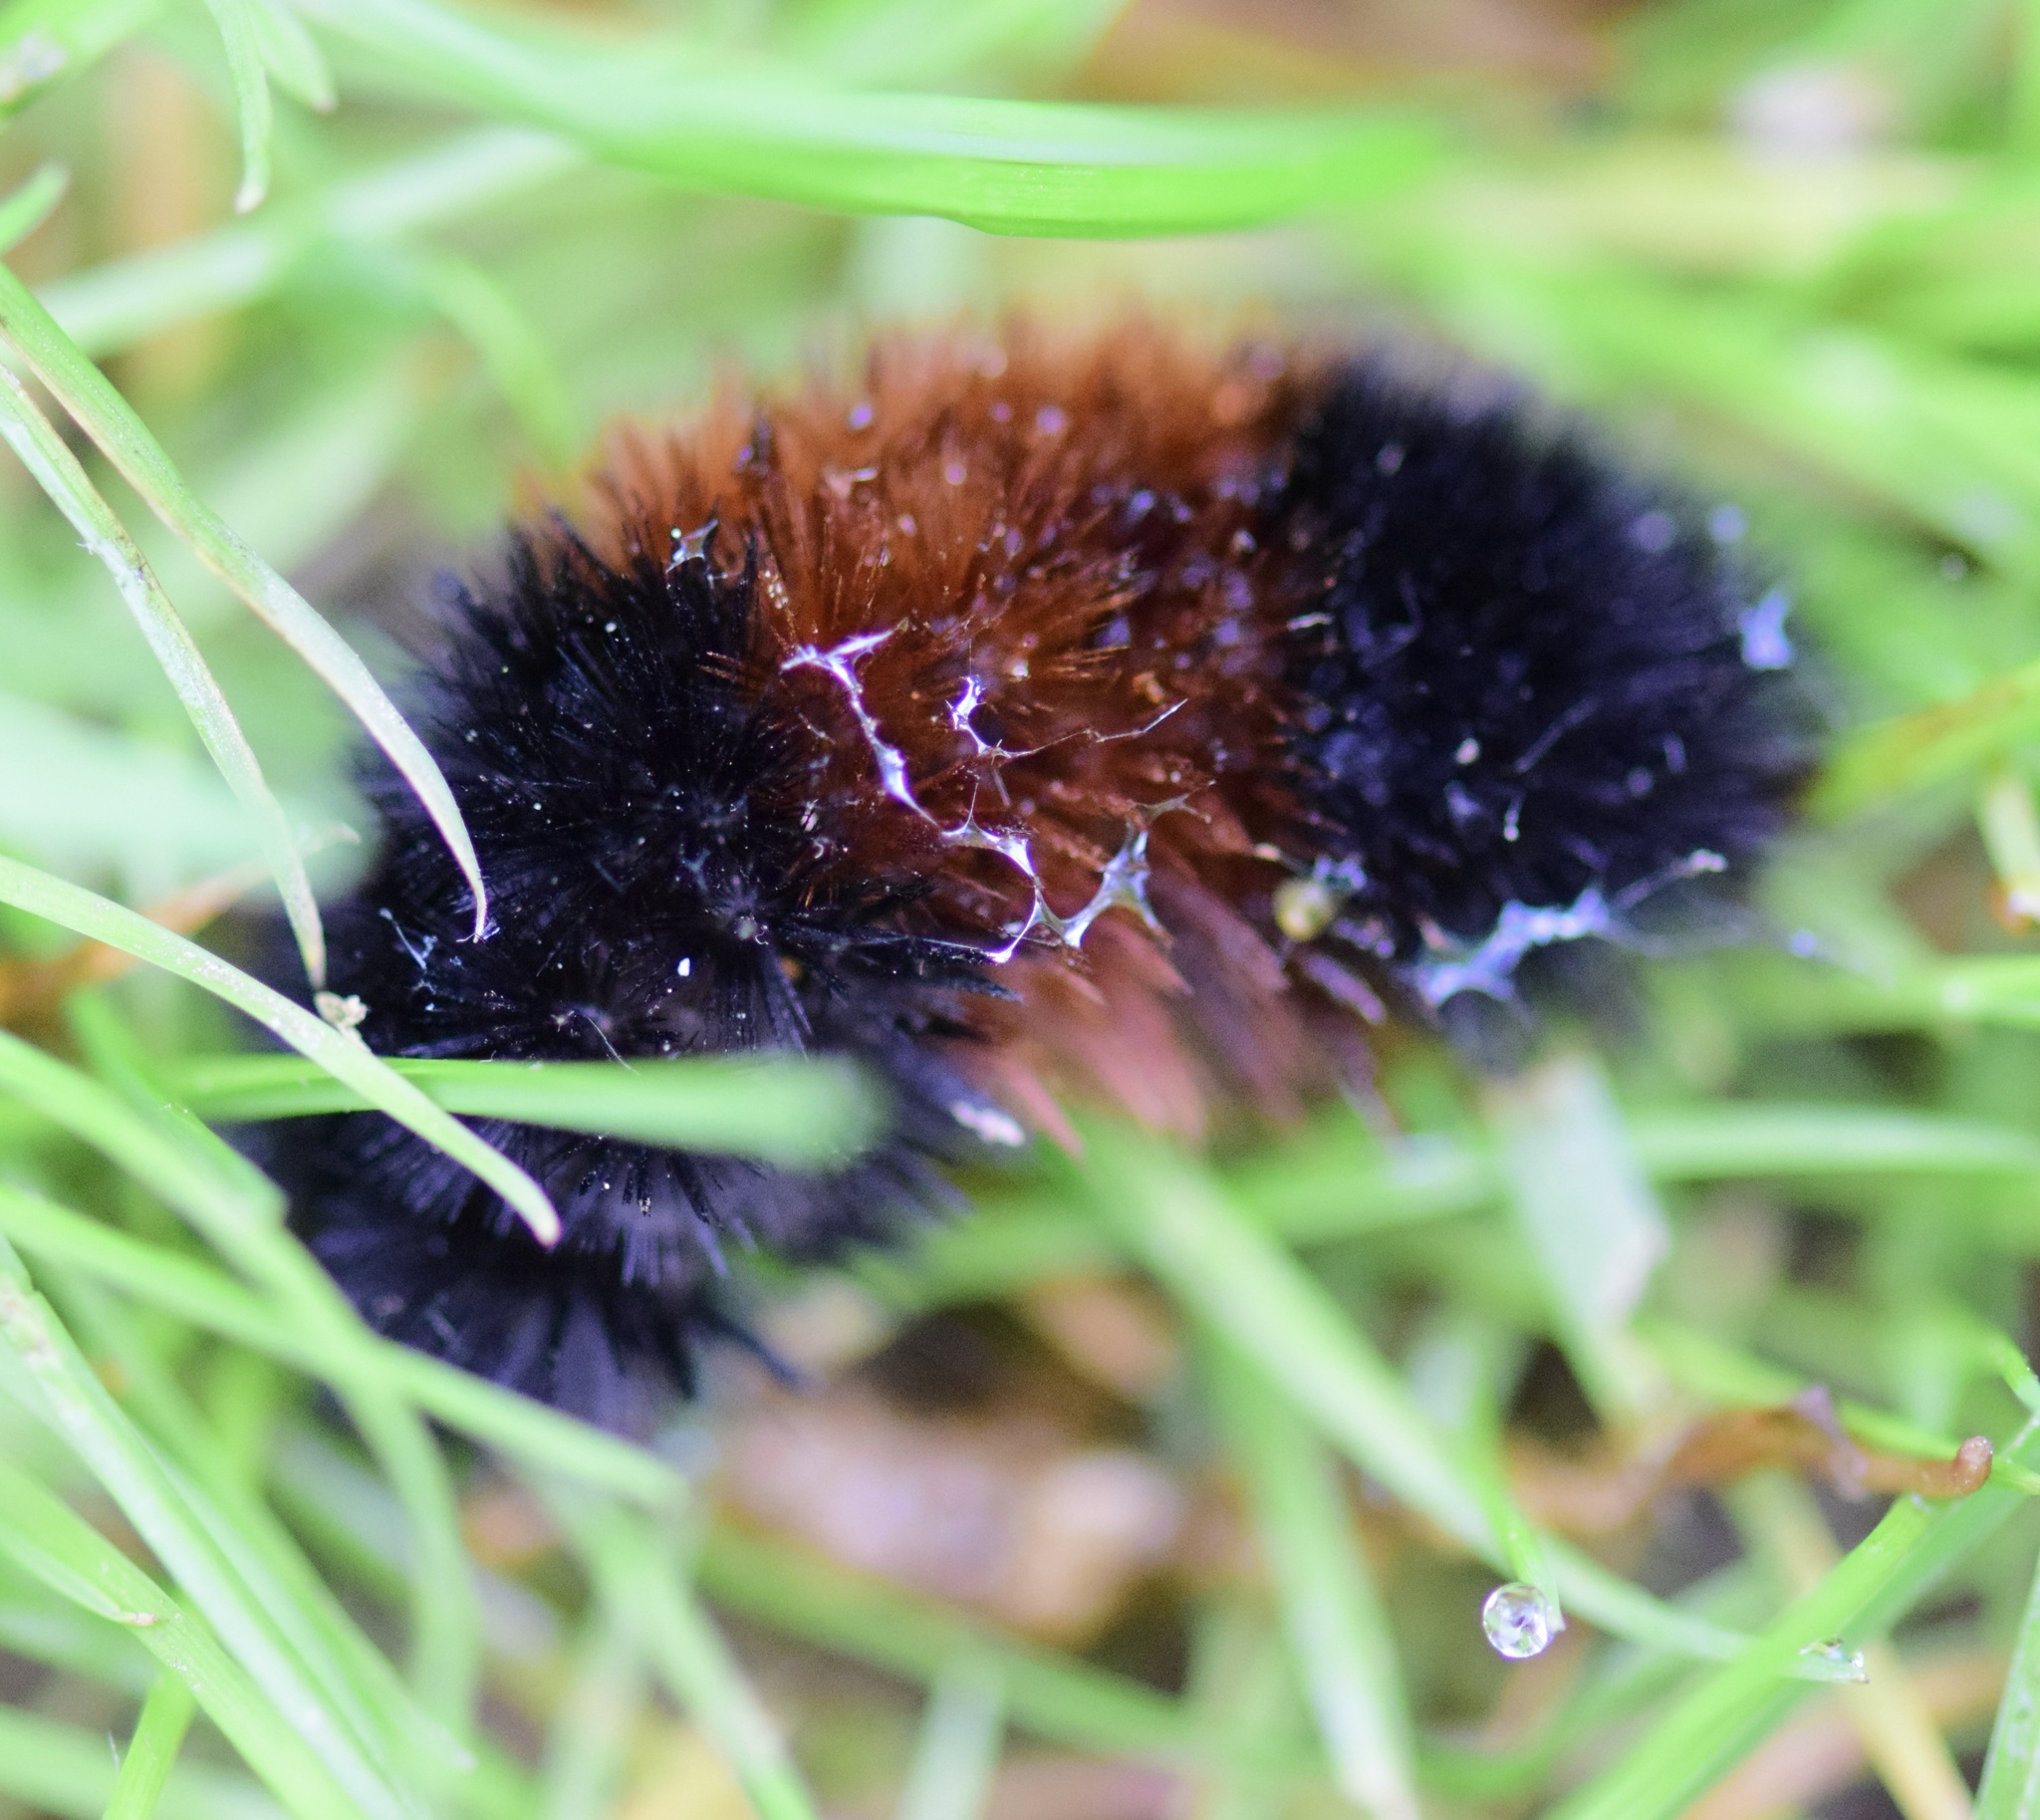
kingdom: Animalia
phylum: Arthropoda
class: Insecta
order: Lepidoptera
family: Erebidae
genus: Pyrrharctia
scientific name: Pyrrharctia isabella
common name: Isabella tiger moth
